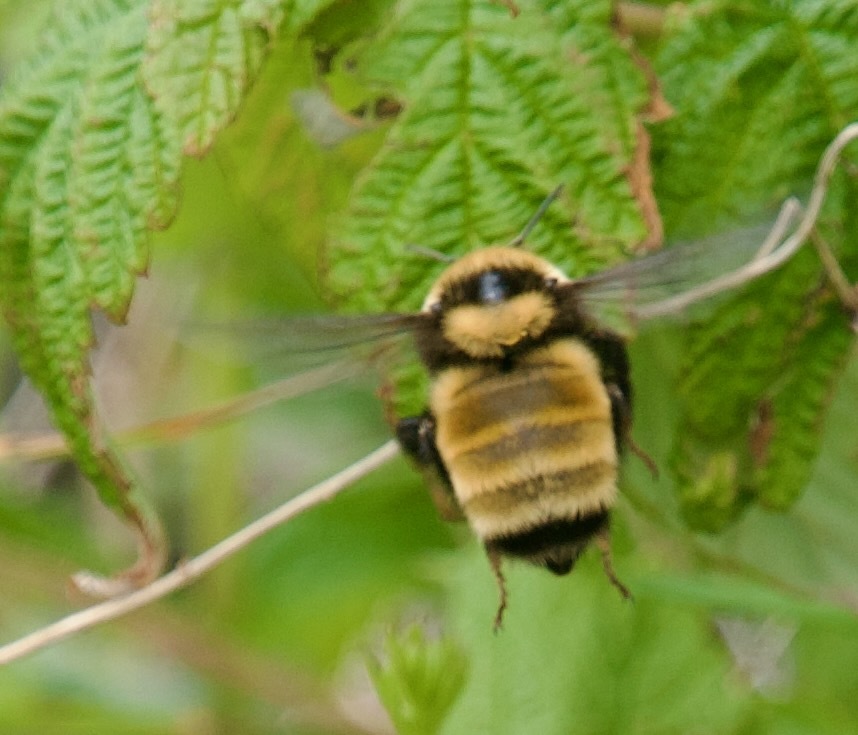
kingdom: Animalia
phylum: Arthropoda
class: Insecta
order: Hymenoptera
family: Apidae
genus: Bombus
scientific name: Bombus borealis
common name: Northern amber bumble bee
